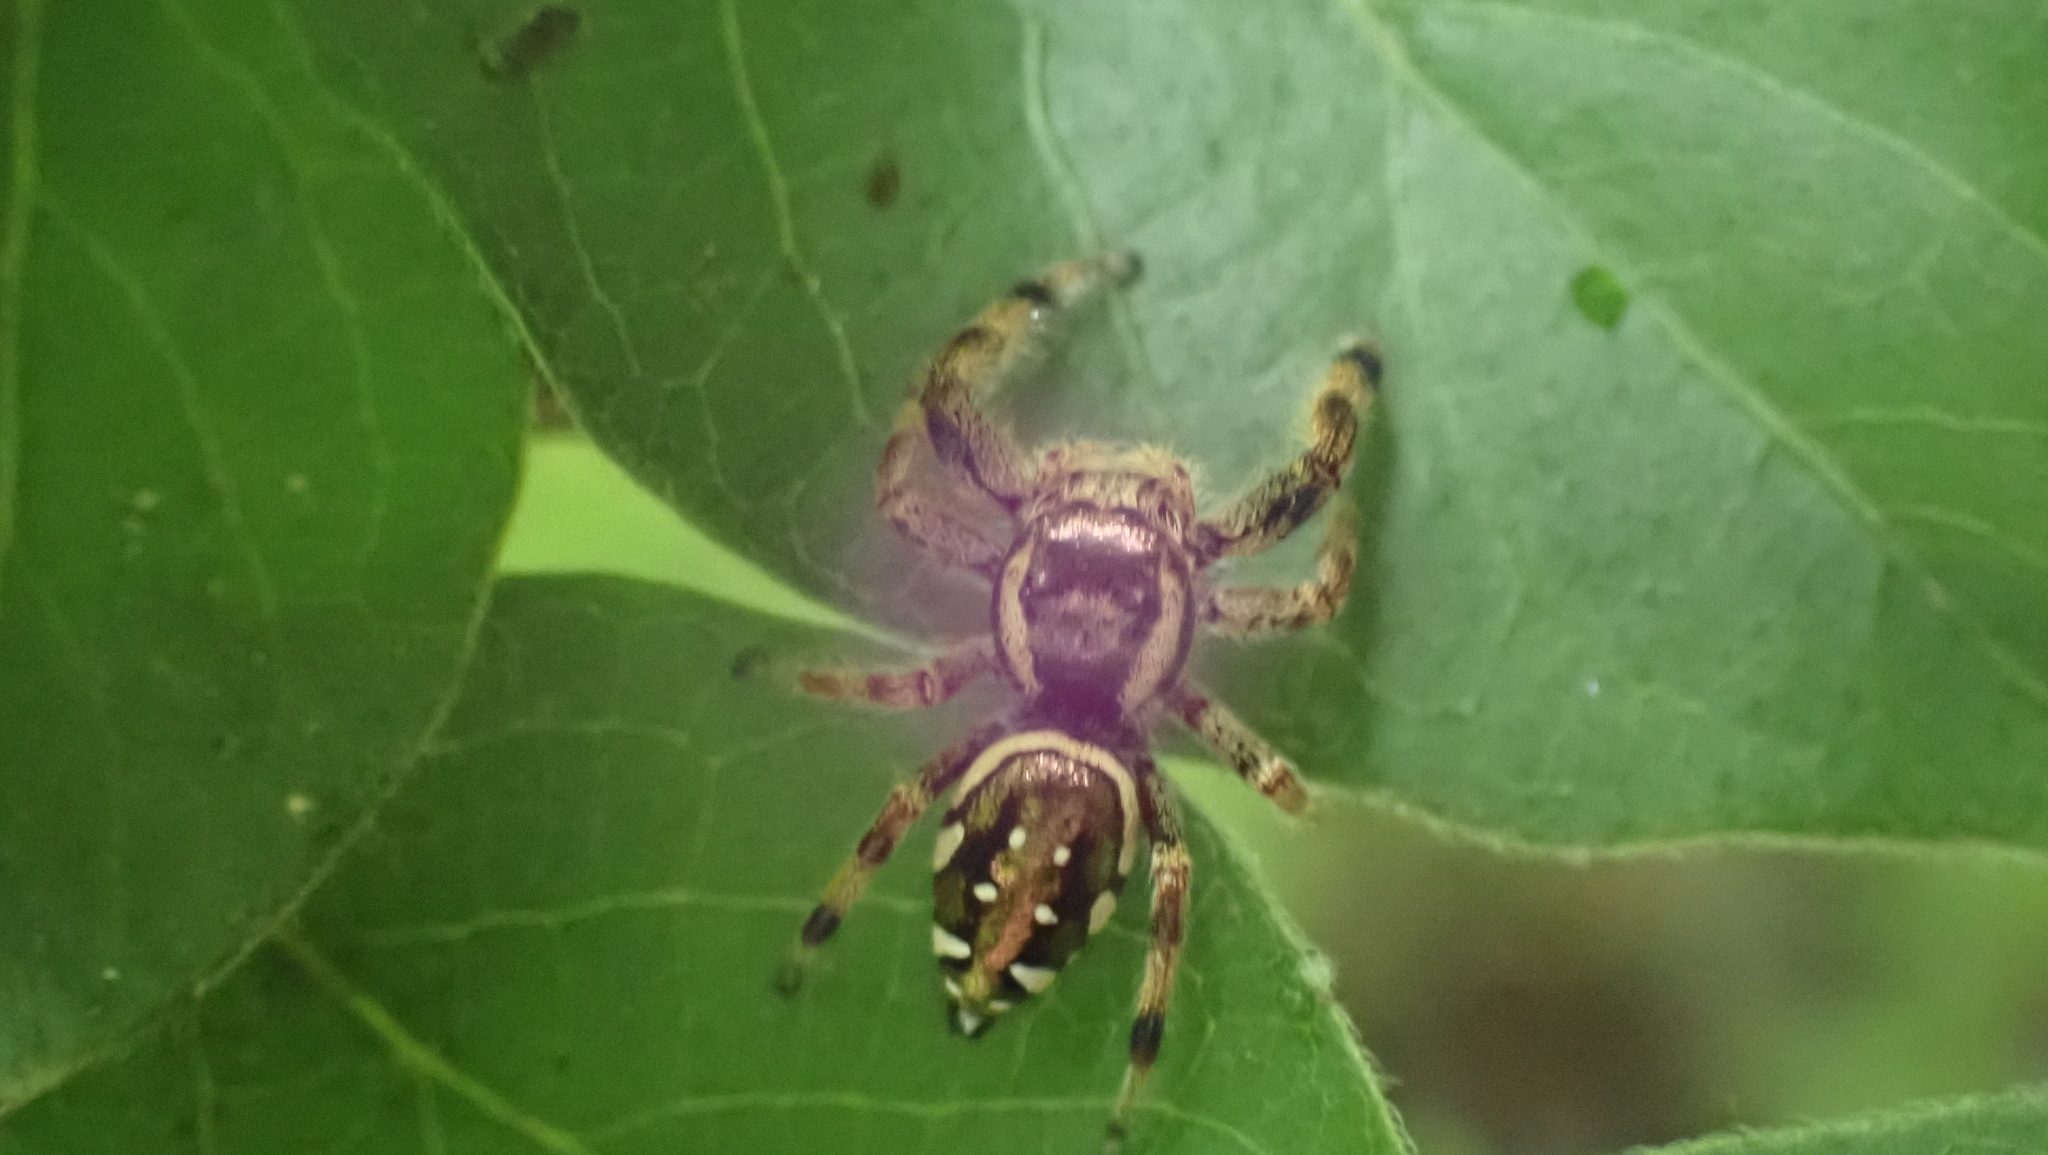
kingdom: Animalia
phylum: Arthropoda
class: Arachnida
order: Araneae
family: Salticidae
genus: Paraphidippus
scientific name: Paraphidippus aurantius
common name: Jumping spiders
